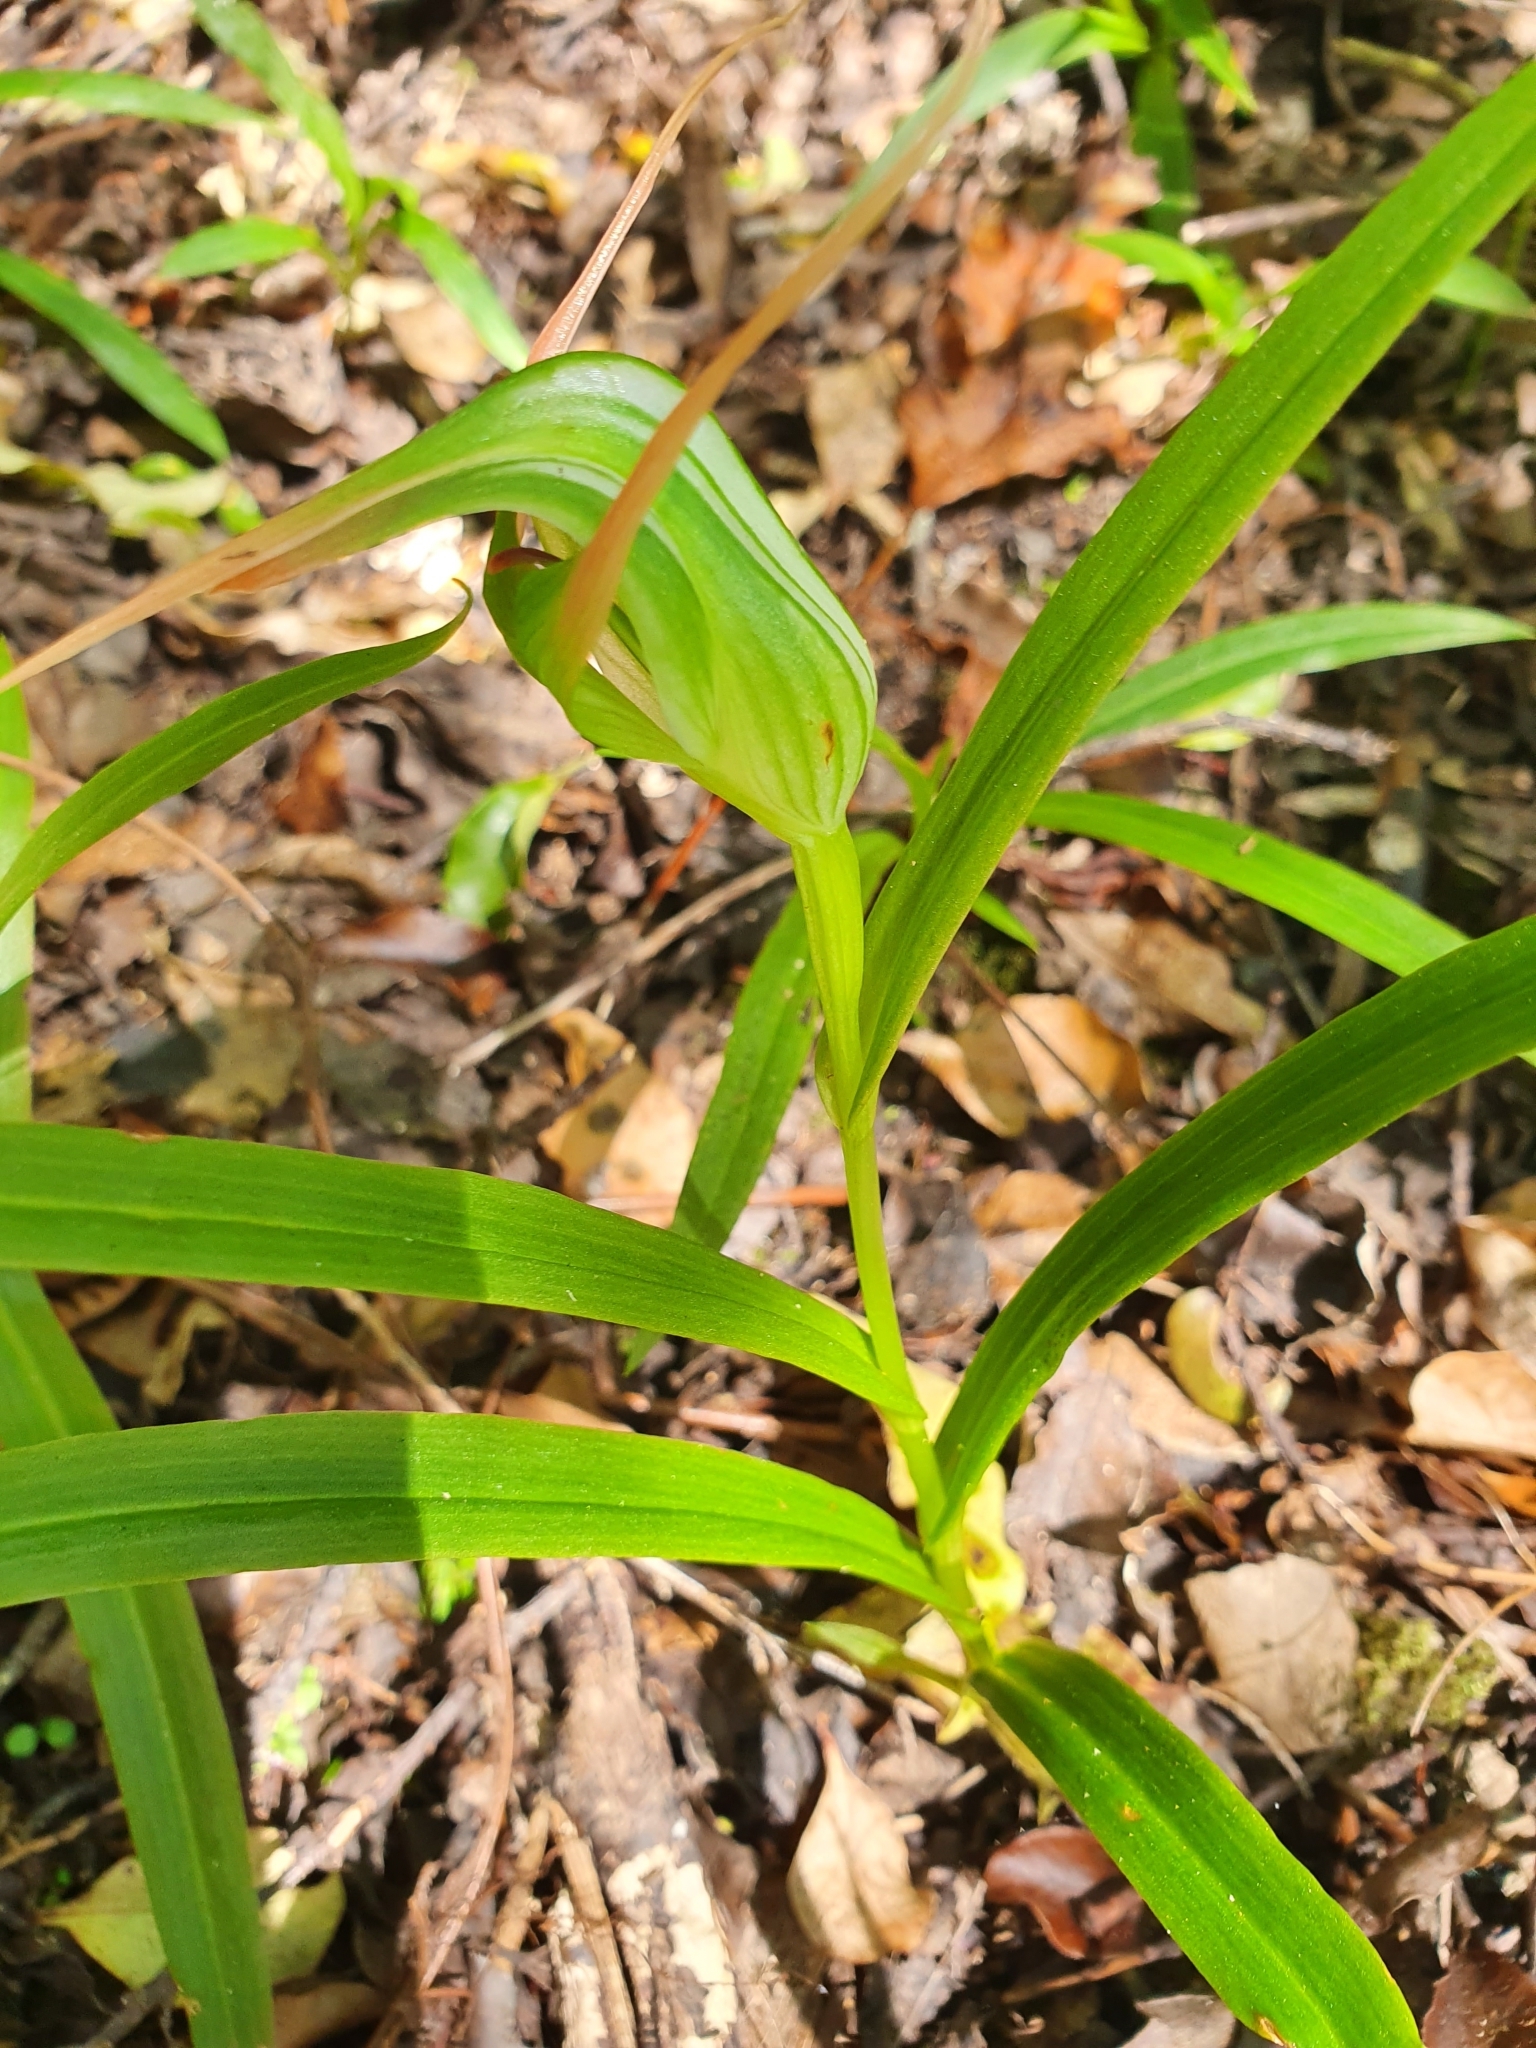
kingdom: Plantae
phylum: Tracheophyta
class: Liliopsida
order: Asparagales
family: Orchidaceae
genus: Pterostylis
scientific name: Pterostylis banksii
